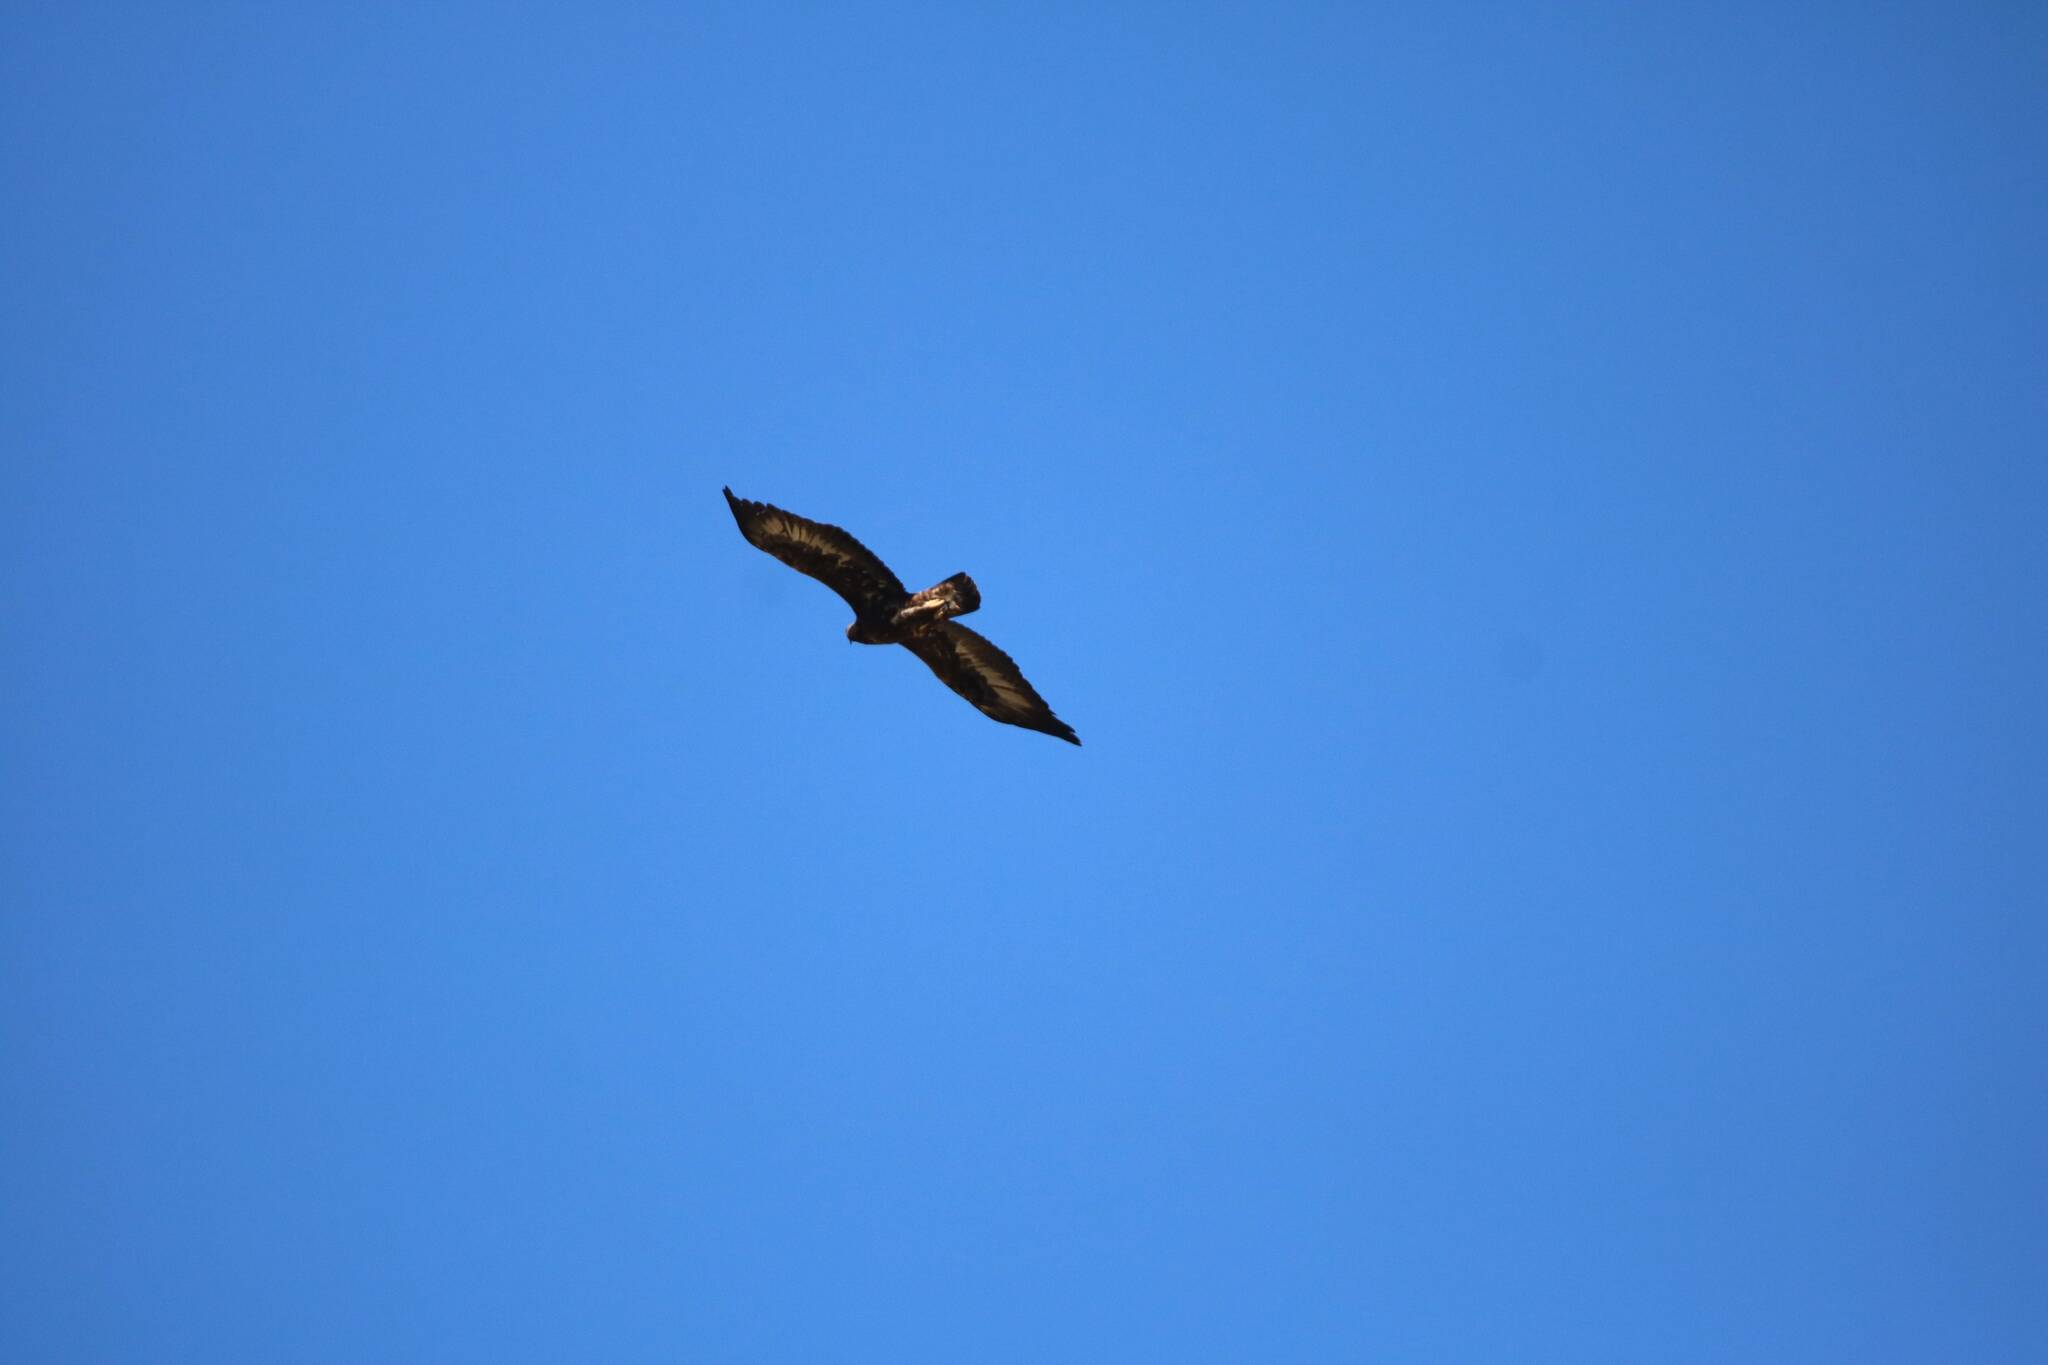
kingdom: Animalia
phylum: Chordata
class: Aves
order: Accipitriformes
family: Accipitridae
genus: Aquila
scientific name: Aquila chrysaetos
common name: Golden eagle
